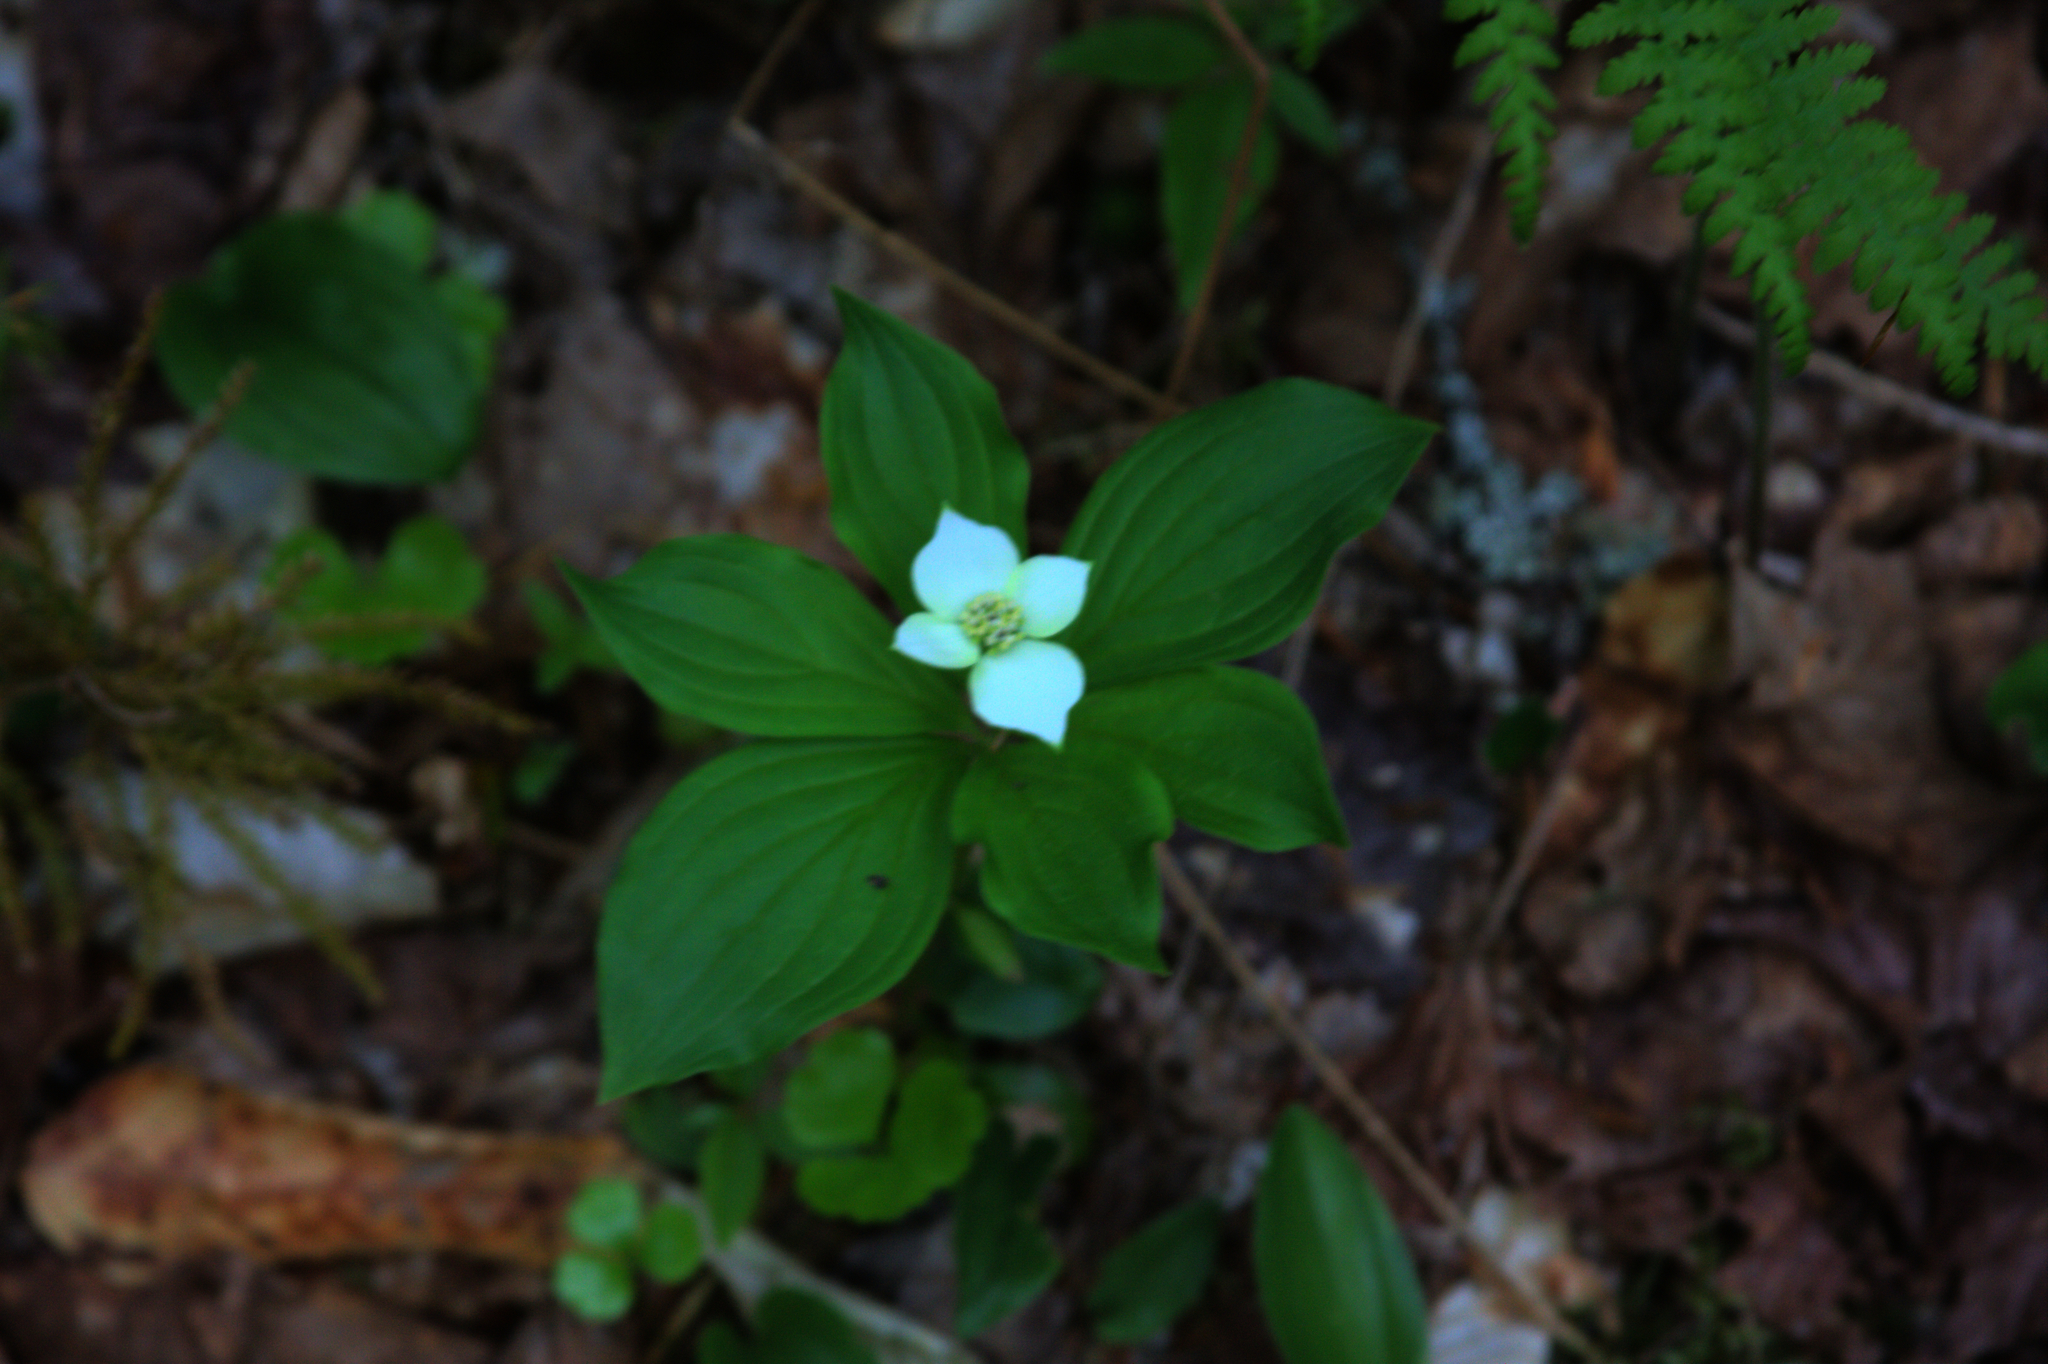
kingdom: Plantae
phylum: Tracheophyta
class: Magnoliopsida
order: Cornales
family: Cornaceae
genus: Cornus
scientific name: Cornus canadensis
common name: Creeping dogwood
